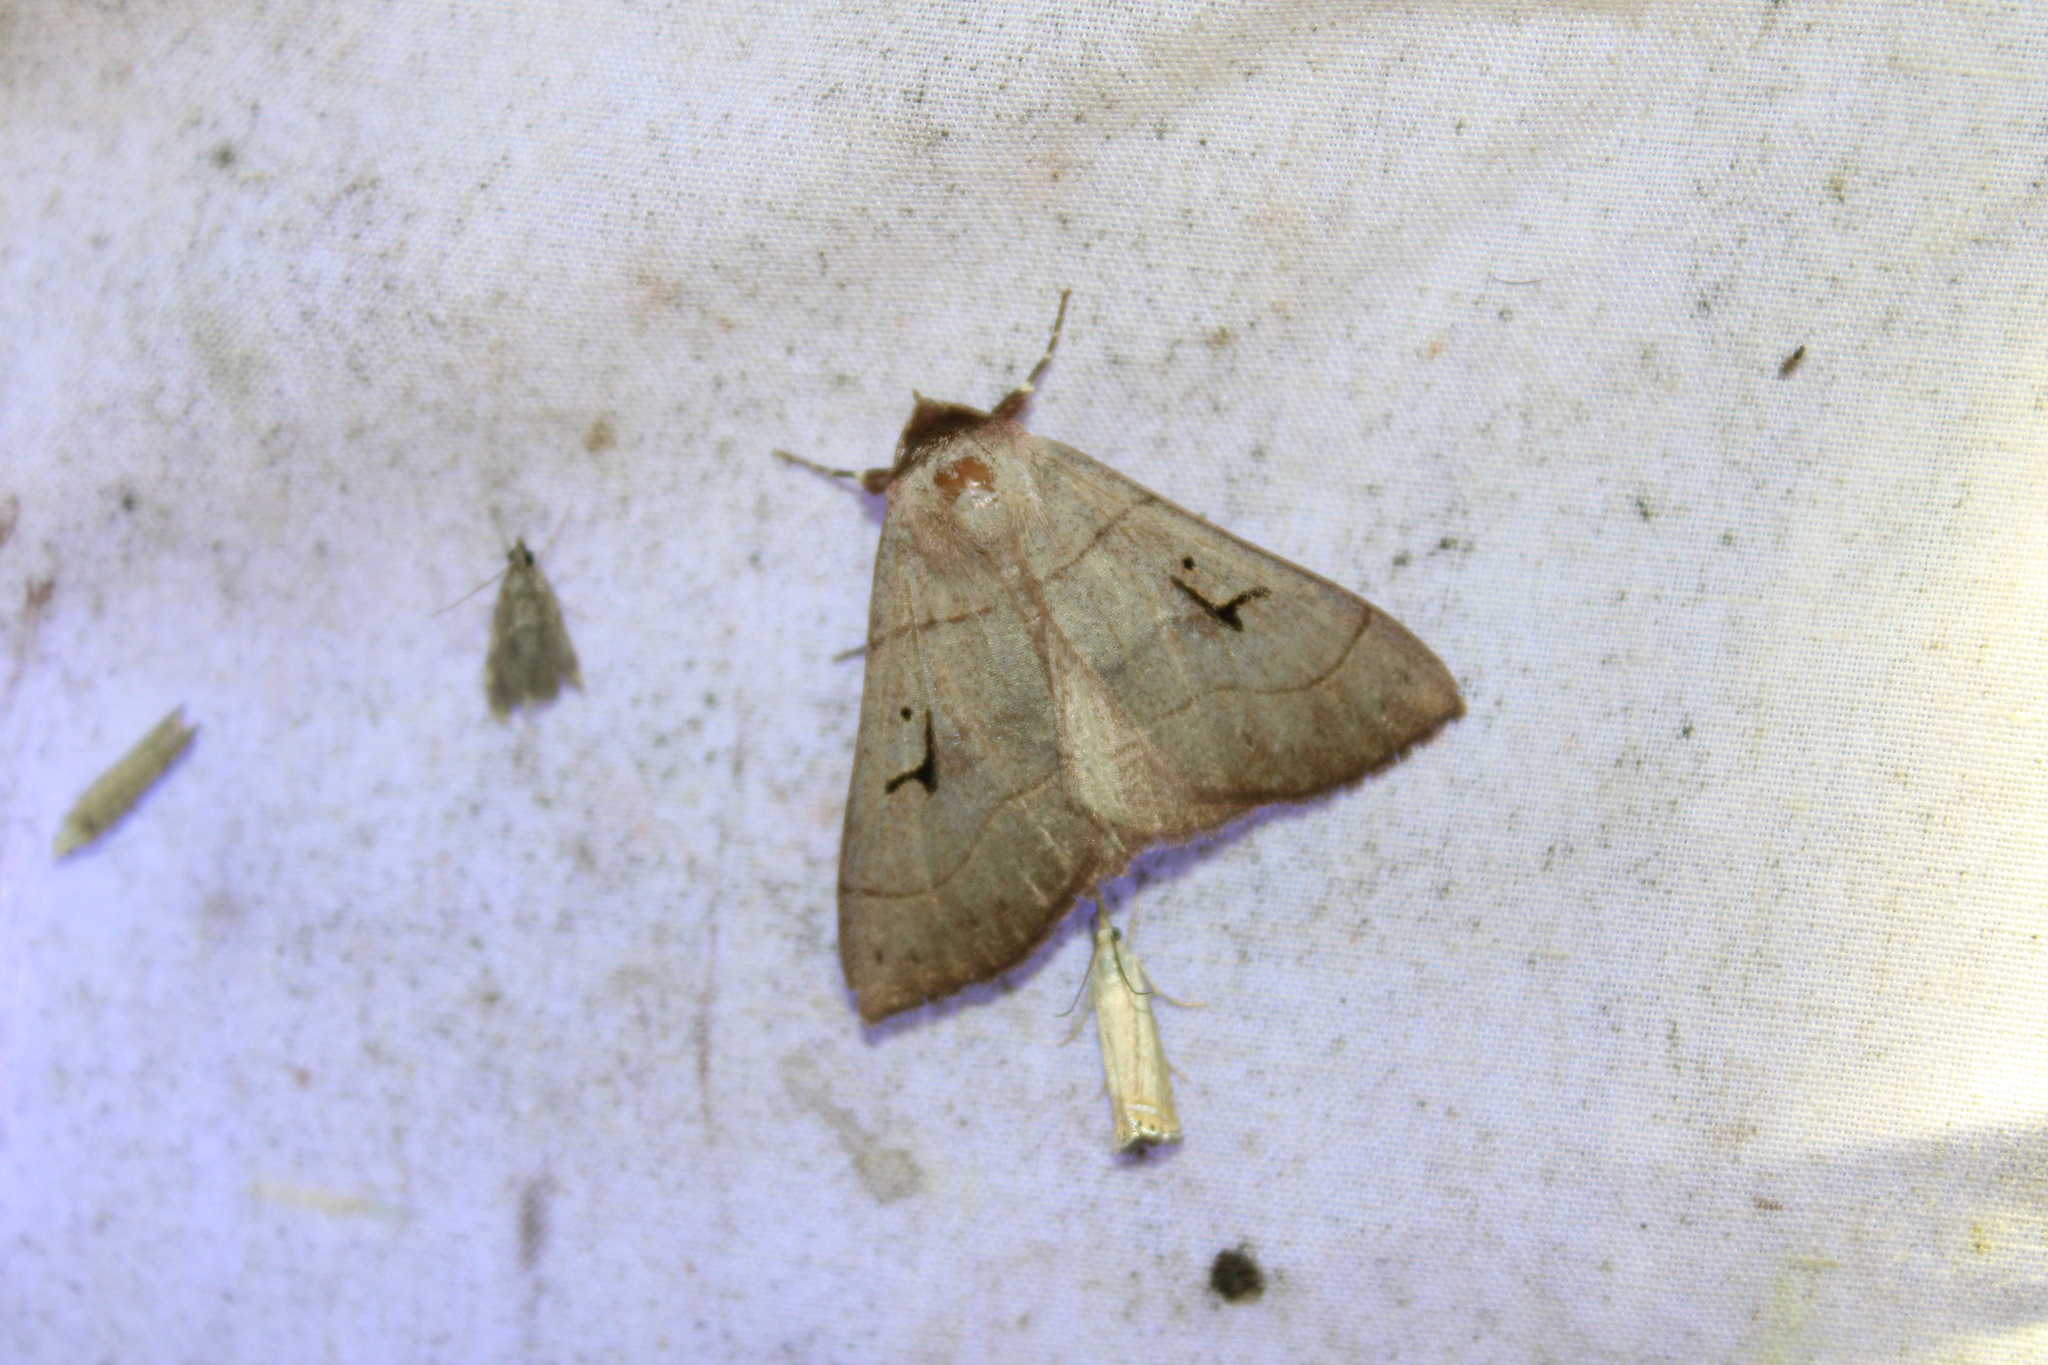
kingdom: Animalia
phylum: Arthropoda
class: Insecta
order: Lepidoptera
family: Erebidae
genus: Panopoda
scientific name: Panopoda carneicosta
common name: Brown panopoda moth
